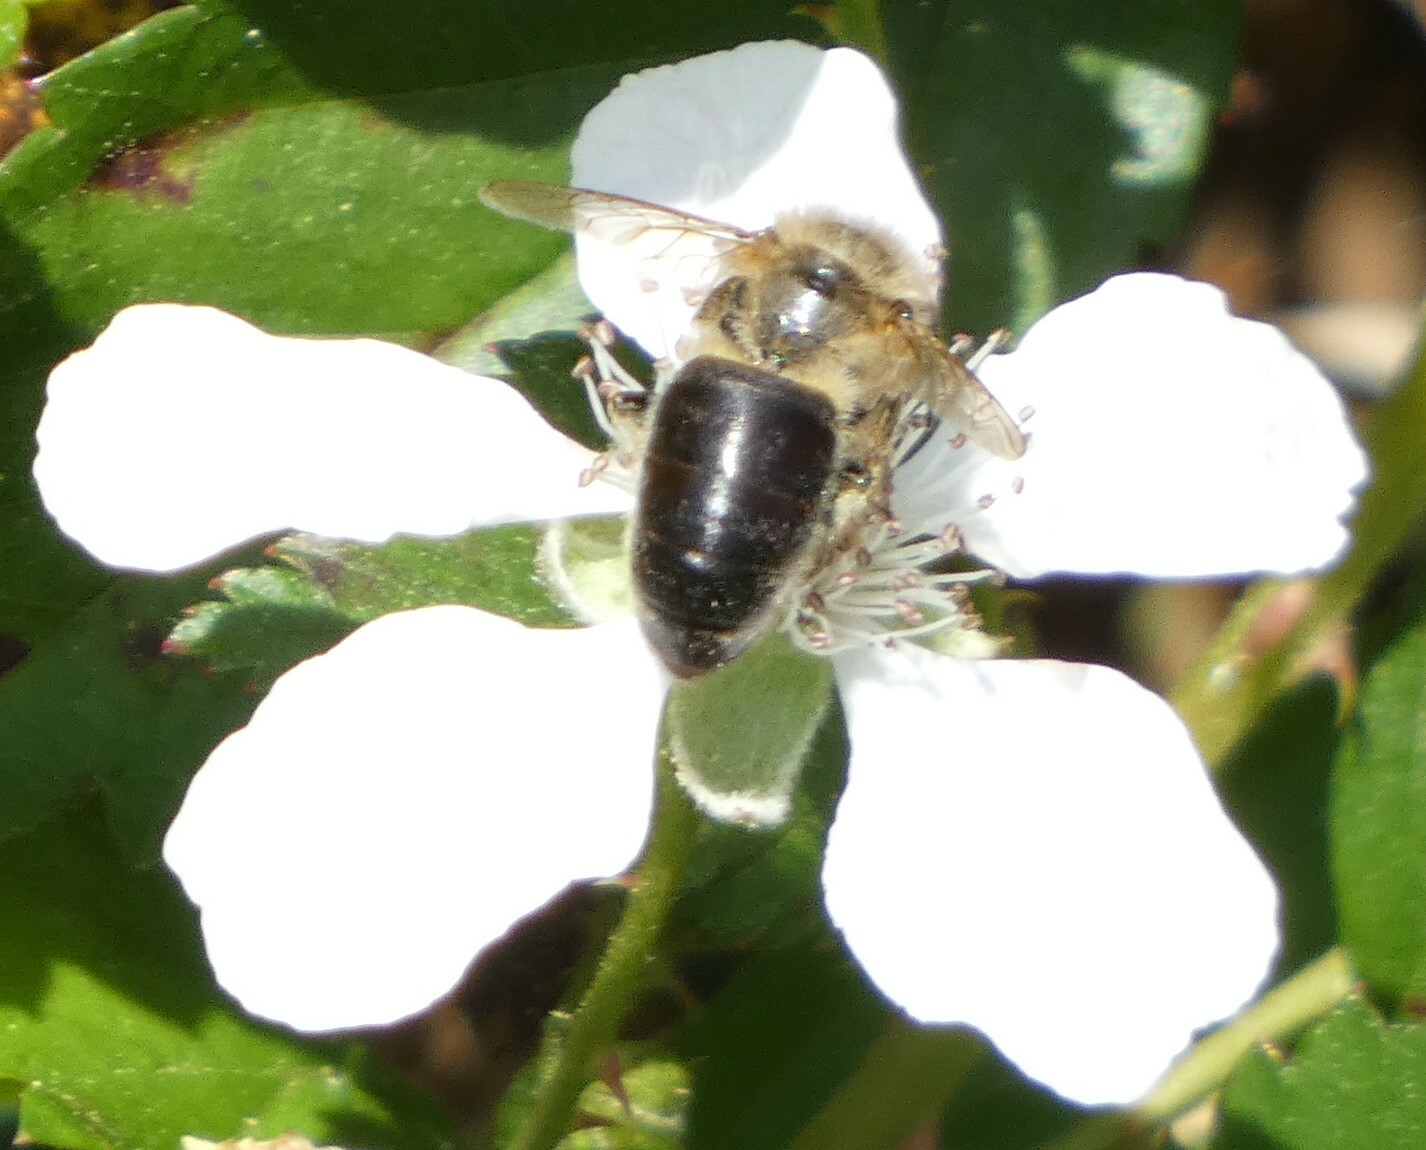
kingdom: Animalia
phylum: Arthropoda
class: Insecta
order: Hymenoptera
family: Apidae
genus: Apis
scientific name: Apis mellifera
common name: Honey bee
